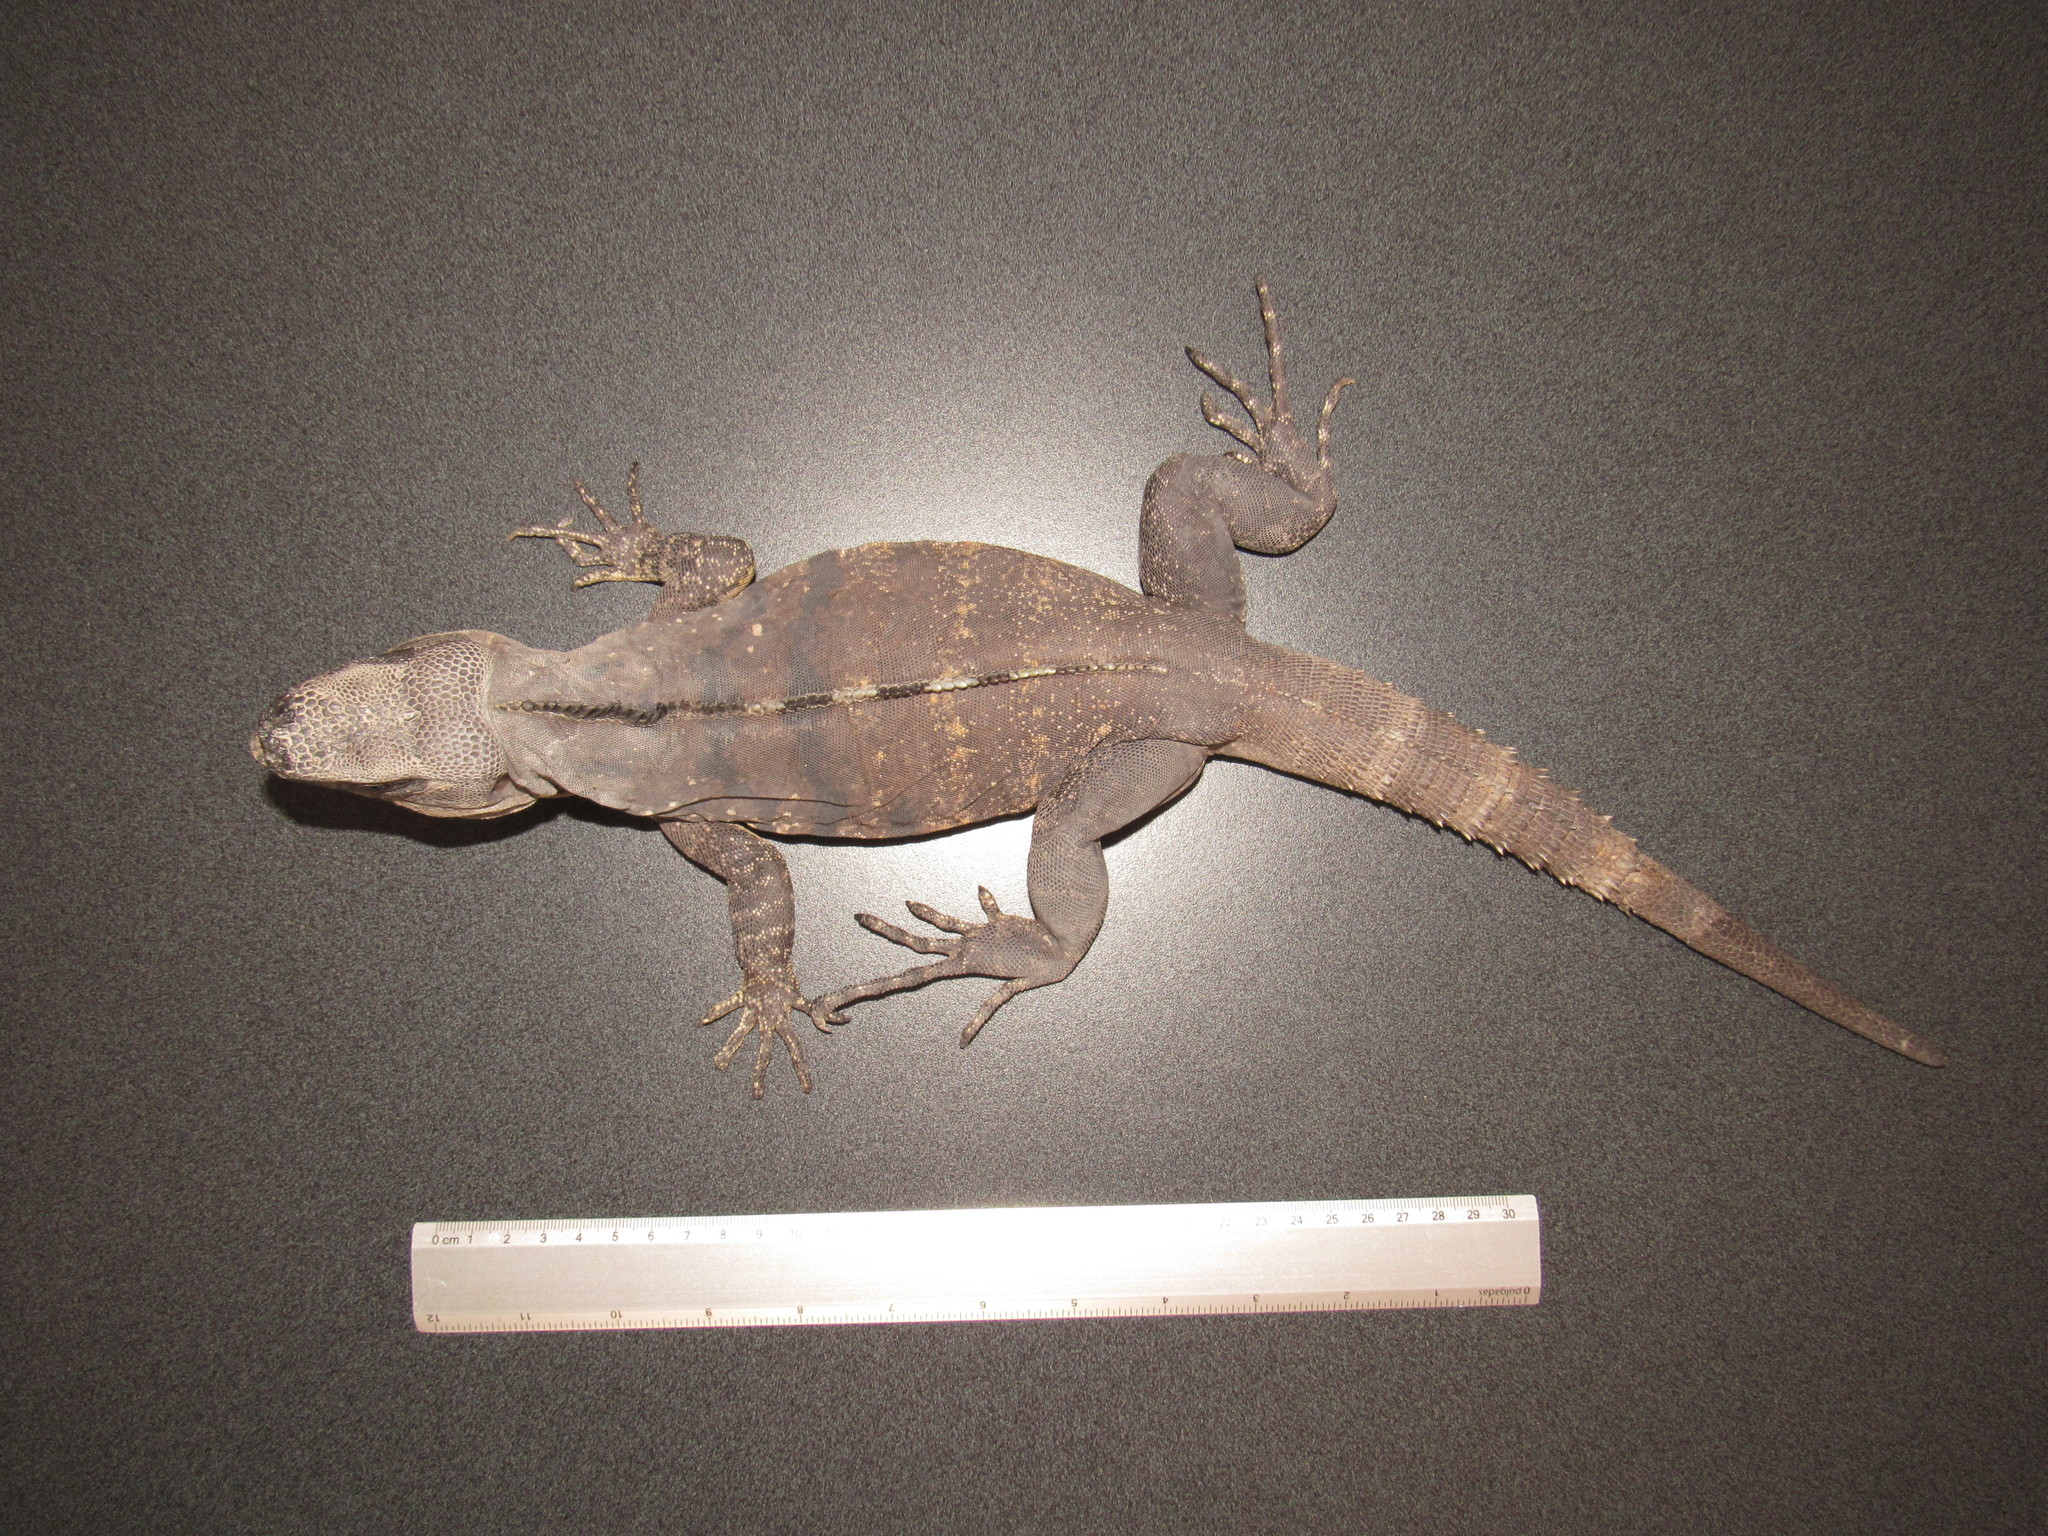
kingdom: Animalia
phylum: Chordata
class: Squamata
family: Iguanidae
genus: Ctenosaura
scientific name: Ctenosaura pectinata
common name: Guerreran spiny-tailed iguana
